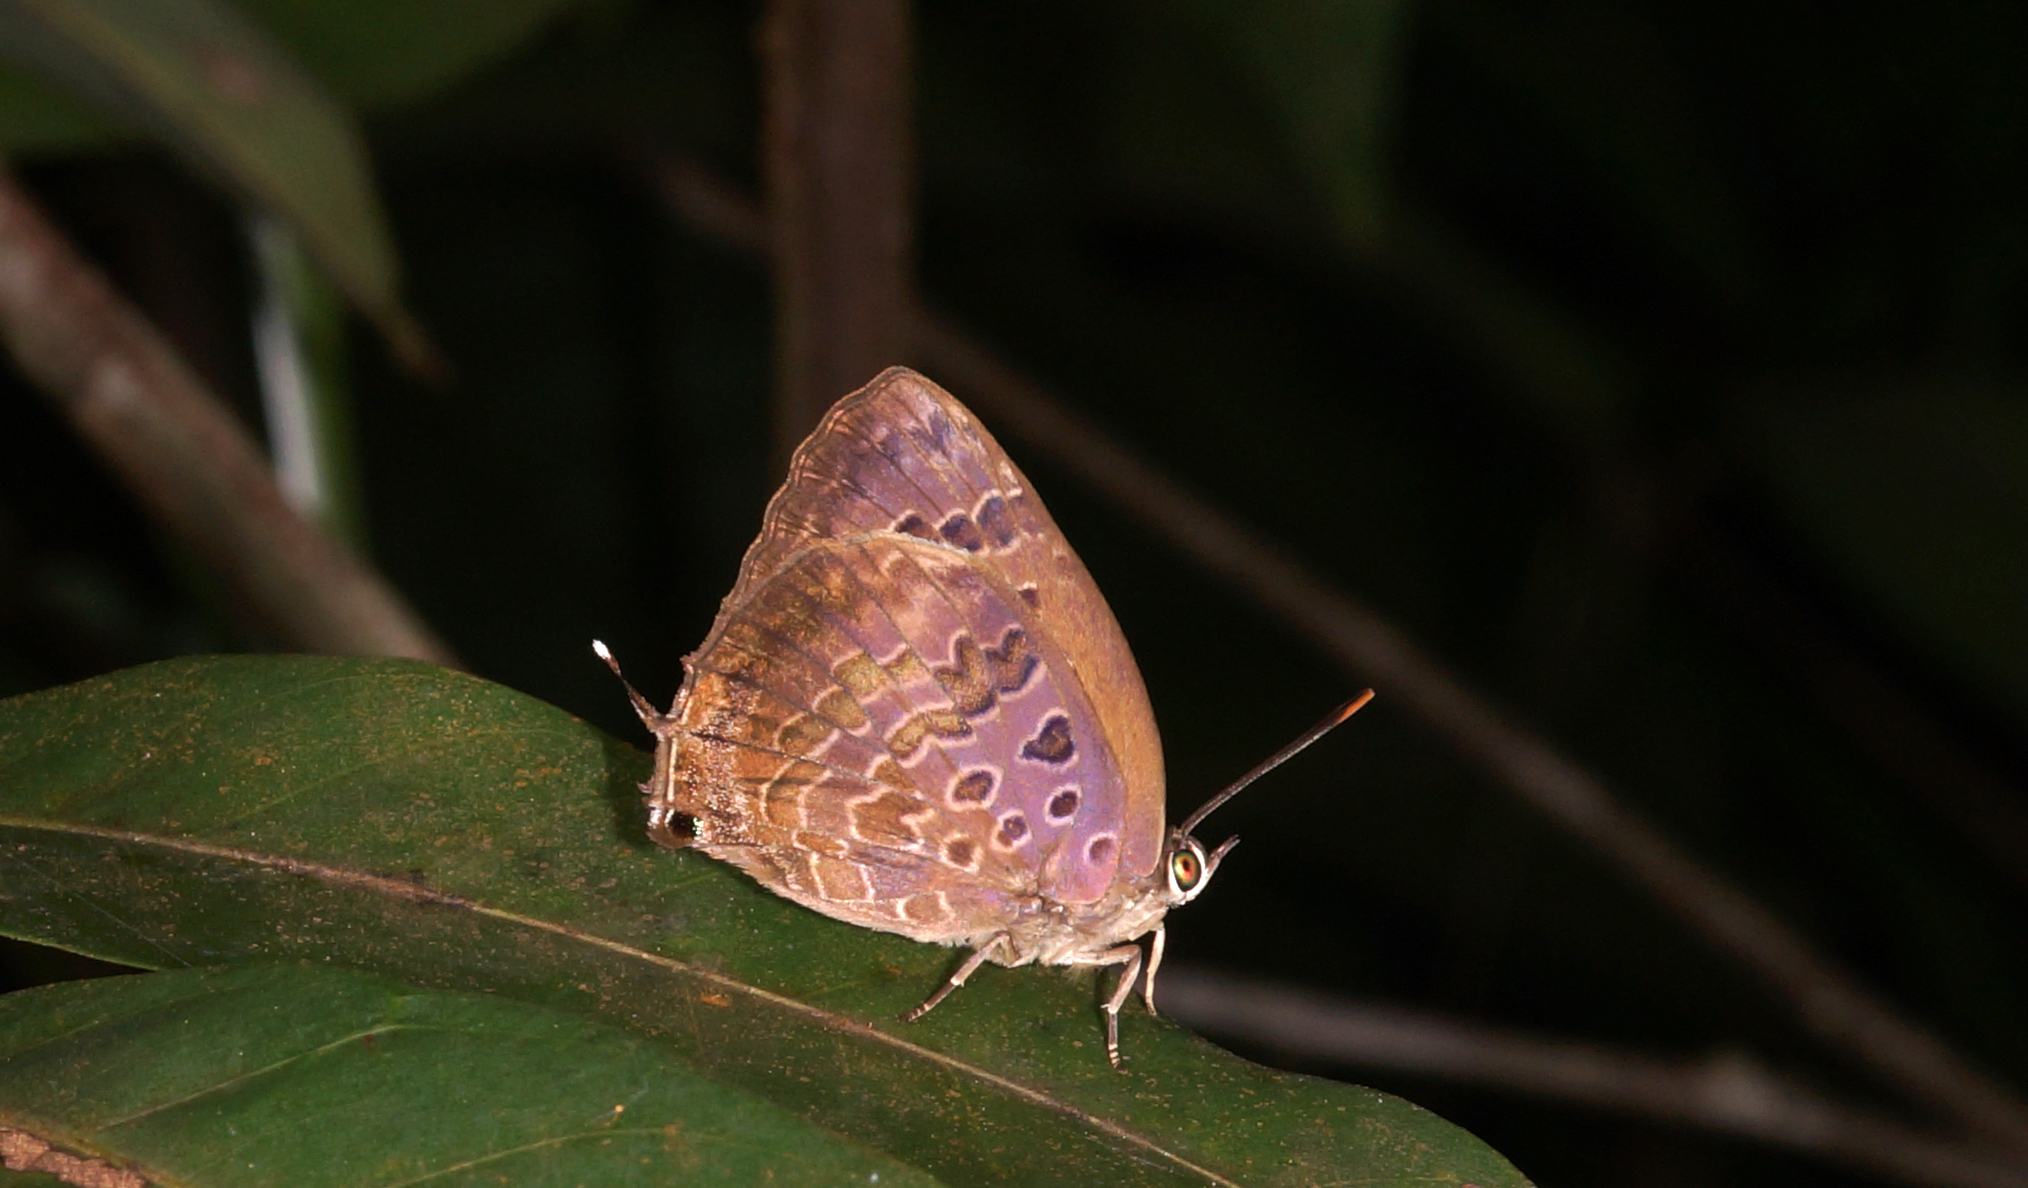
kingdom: Animalia
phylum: Arthropoda
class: Insecta
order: Lepidoptera
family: Lycaenidae
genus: Arhopala
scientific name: Arhopala bazalus
